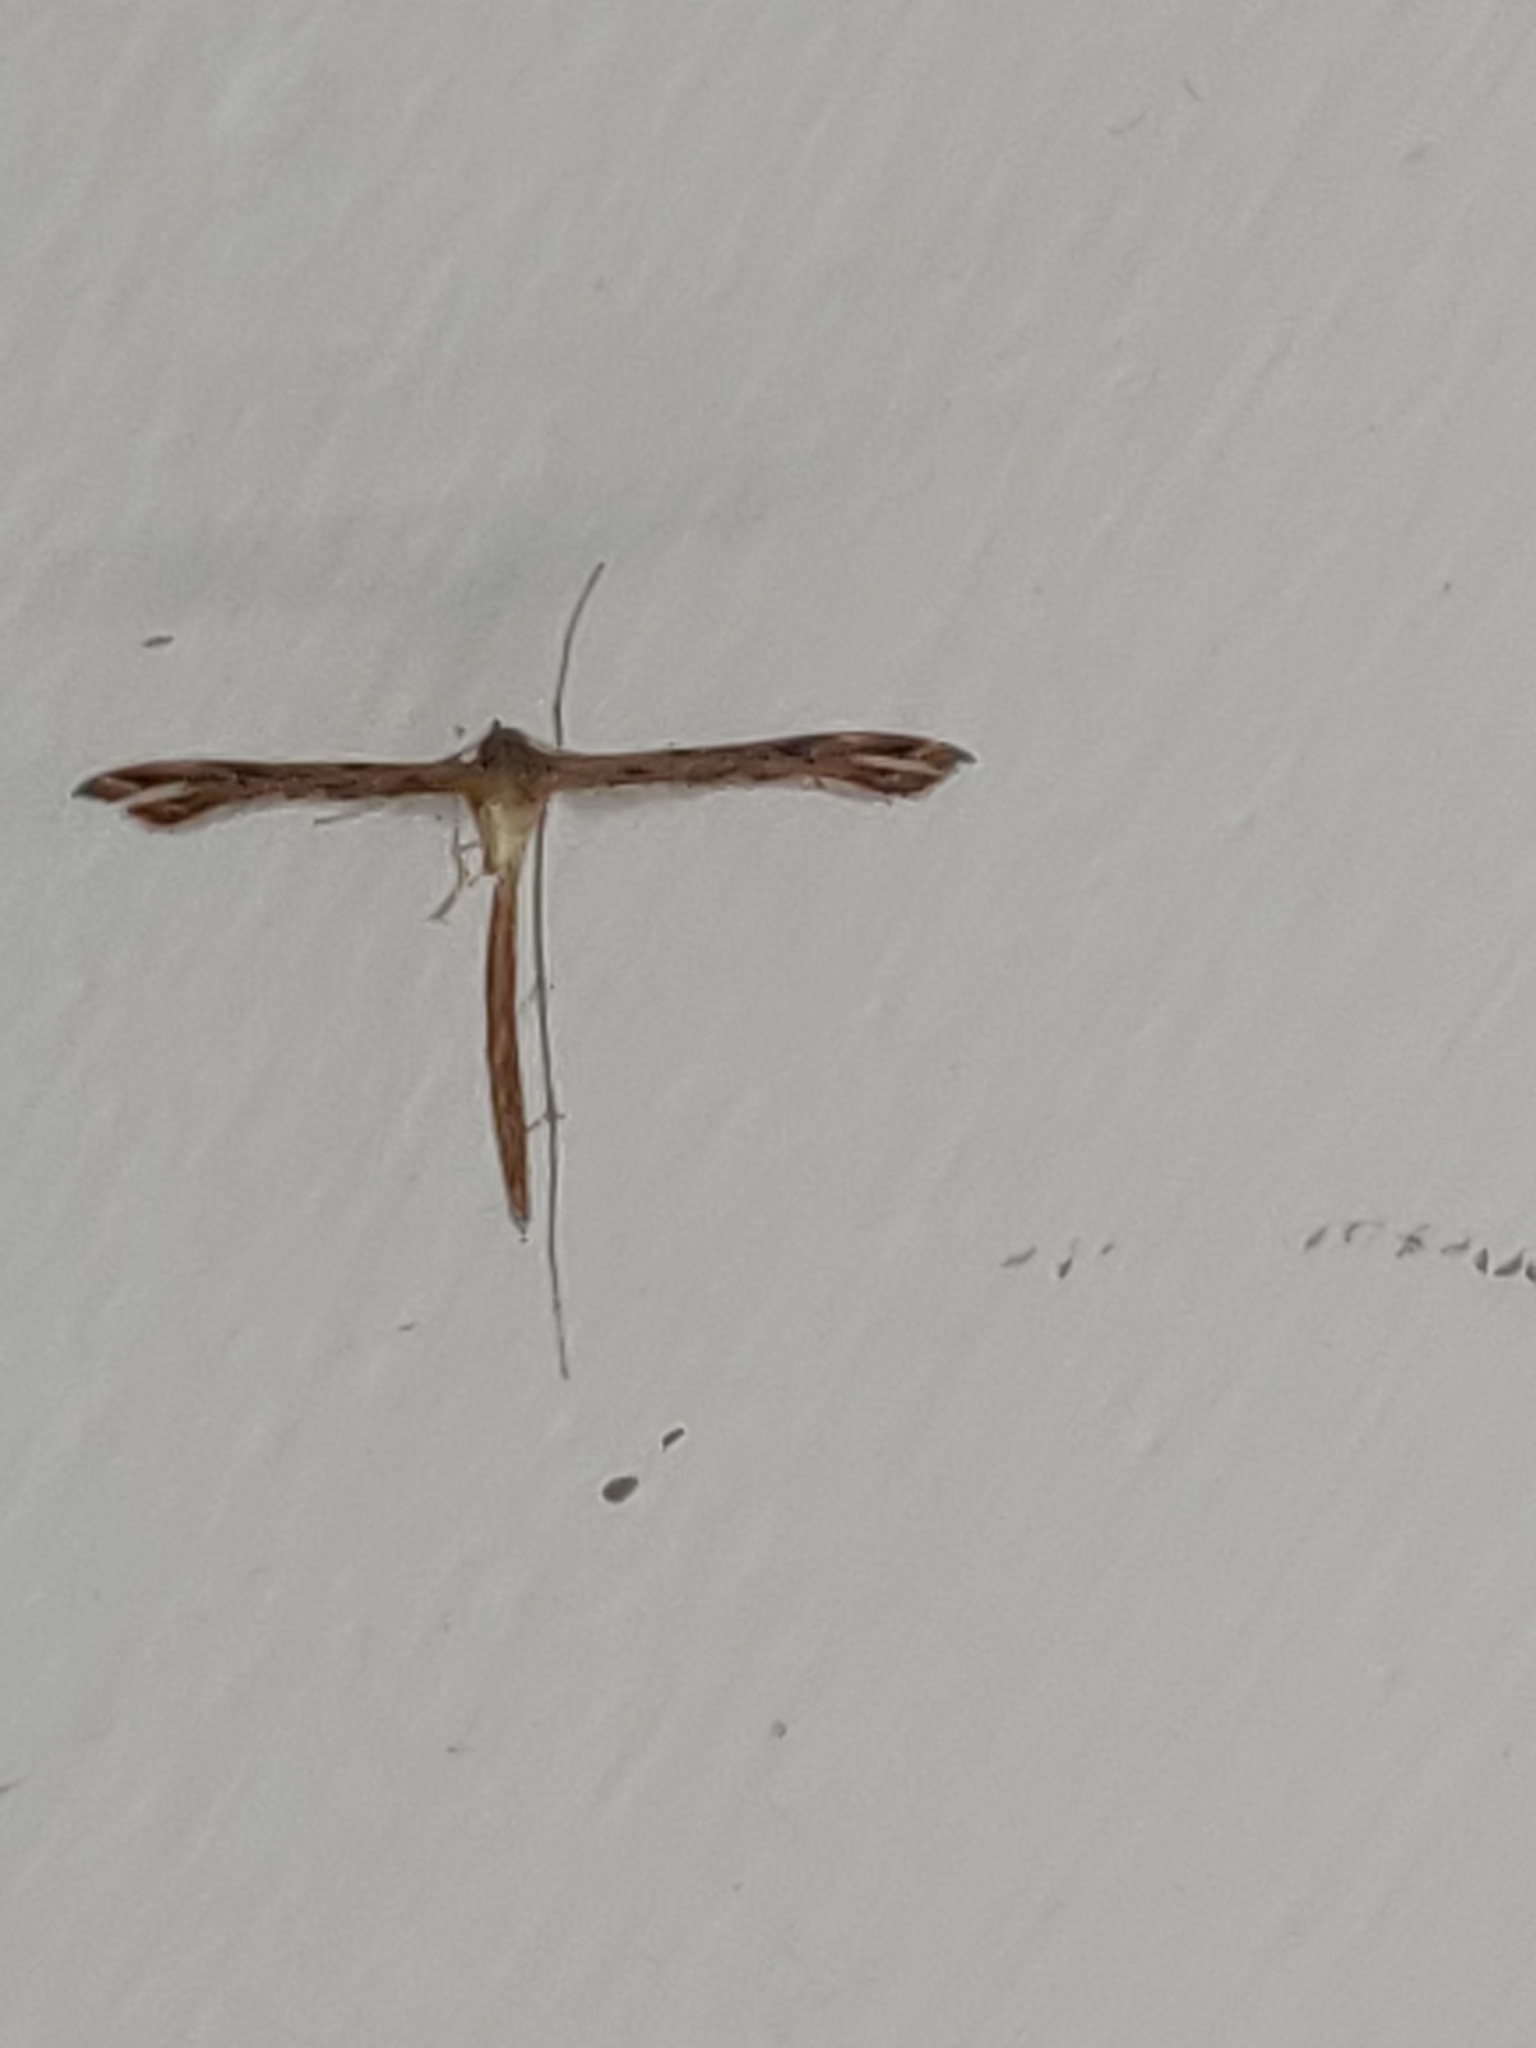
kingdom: Animalia
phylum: Arthropoda
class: Insecta
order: Lepidoptera
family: Pterophoridae
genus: Stenoptilodes
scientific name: Stenoptilodes taprobanes
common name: Moth
